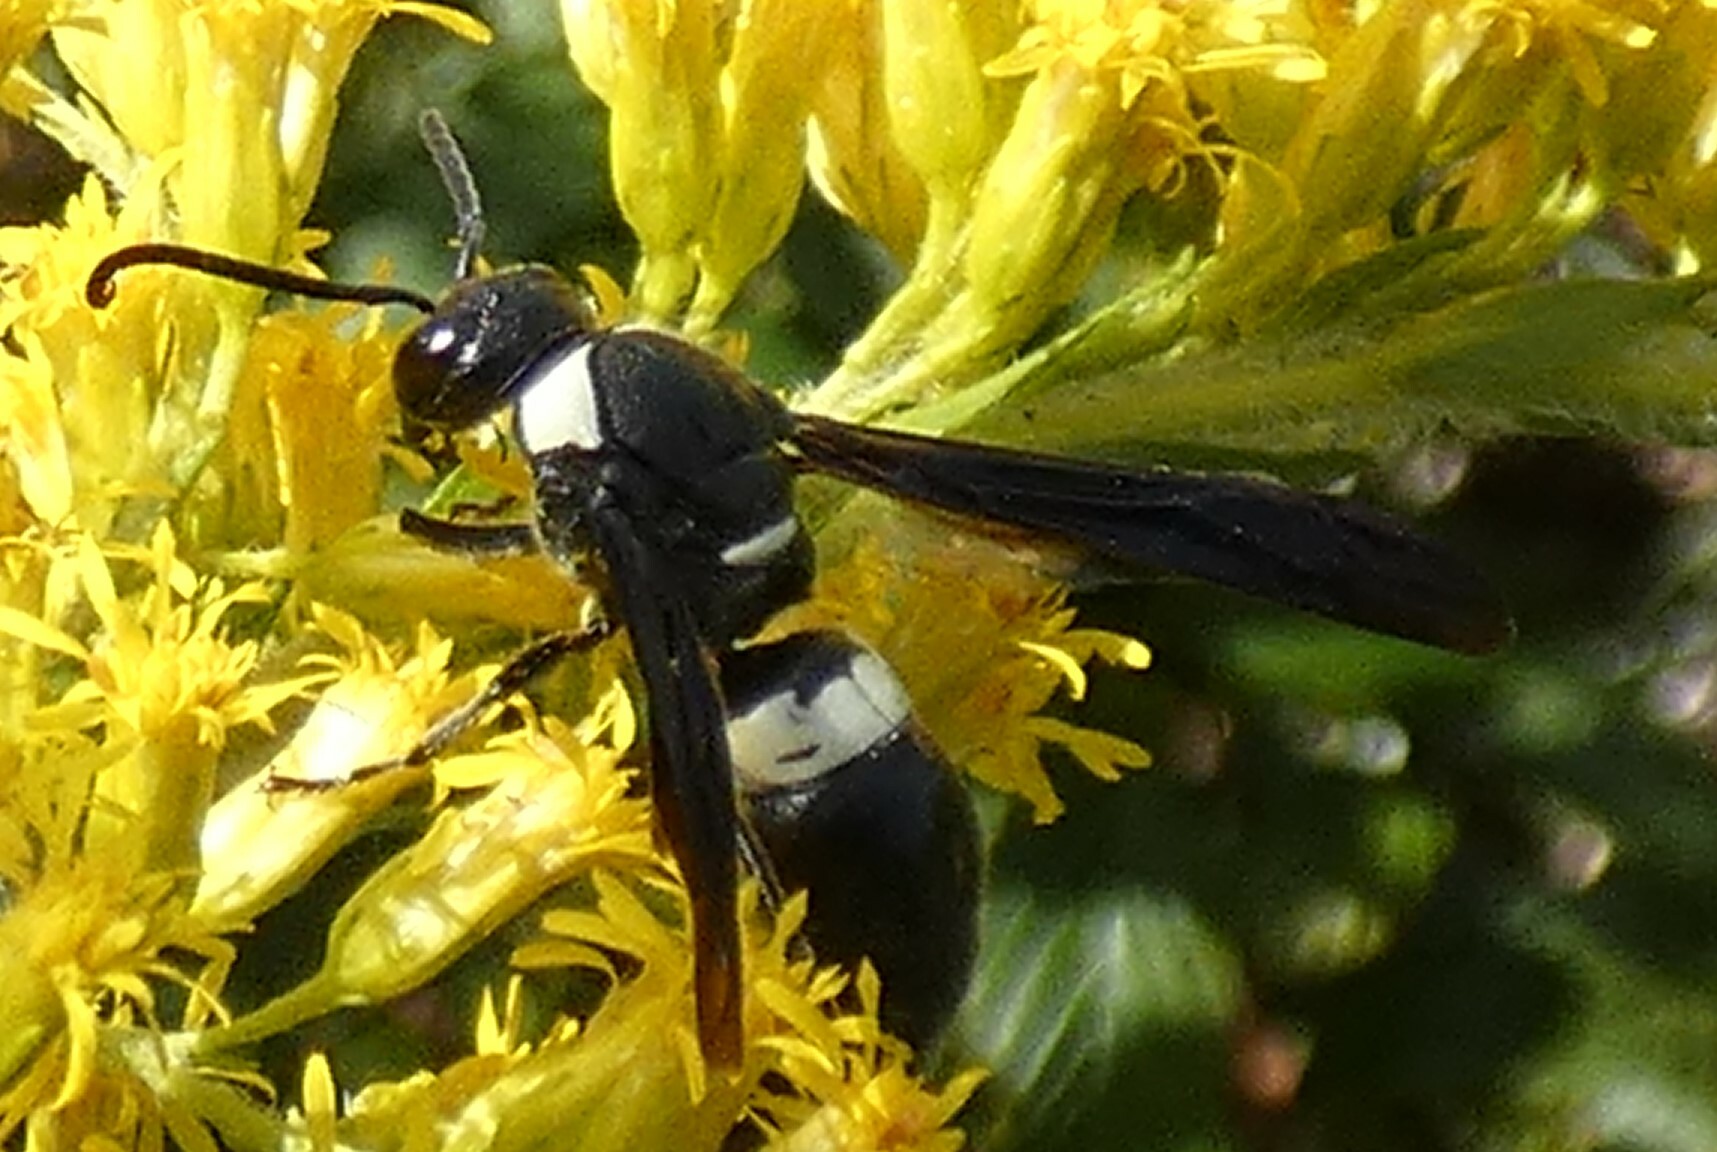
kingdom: Animalia
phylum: Arthropoda
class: Insecta
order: Hymenoptera
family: Eumenidae
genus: Monobia
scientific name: Monobia quadridens
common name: Four-toothed mason wasp
